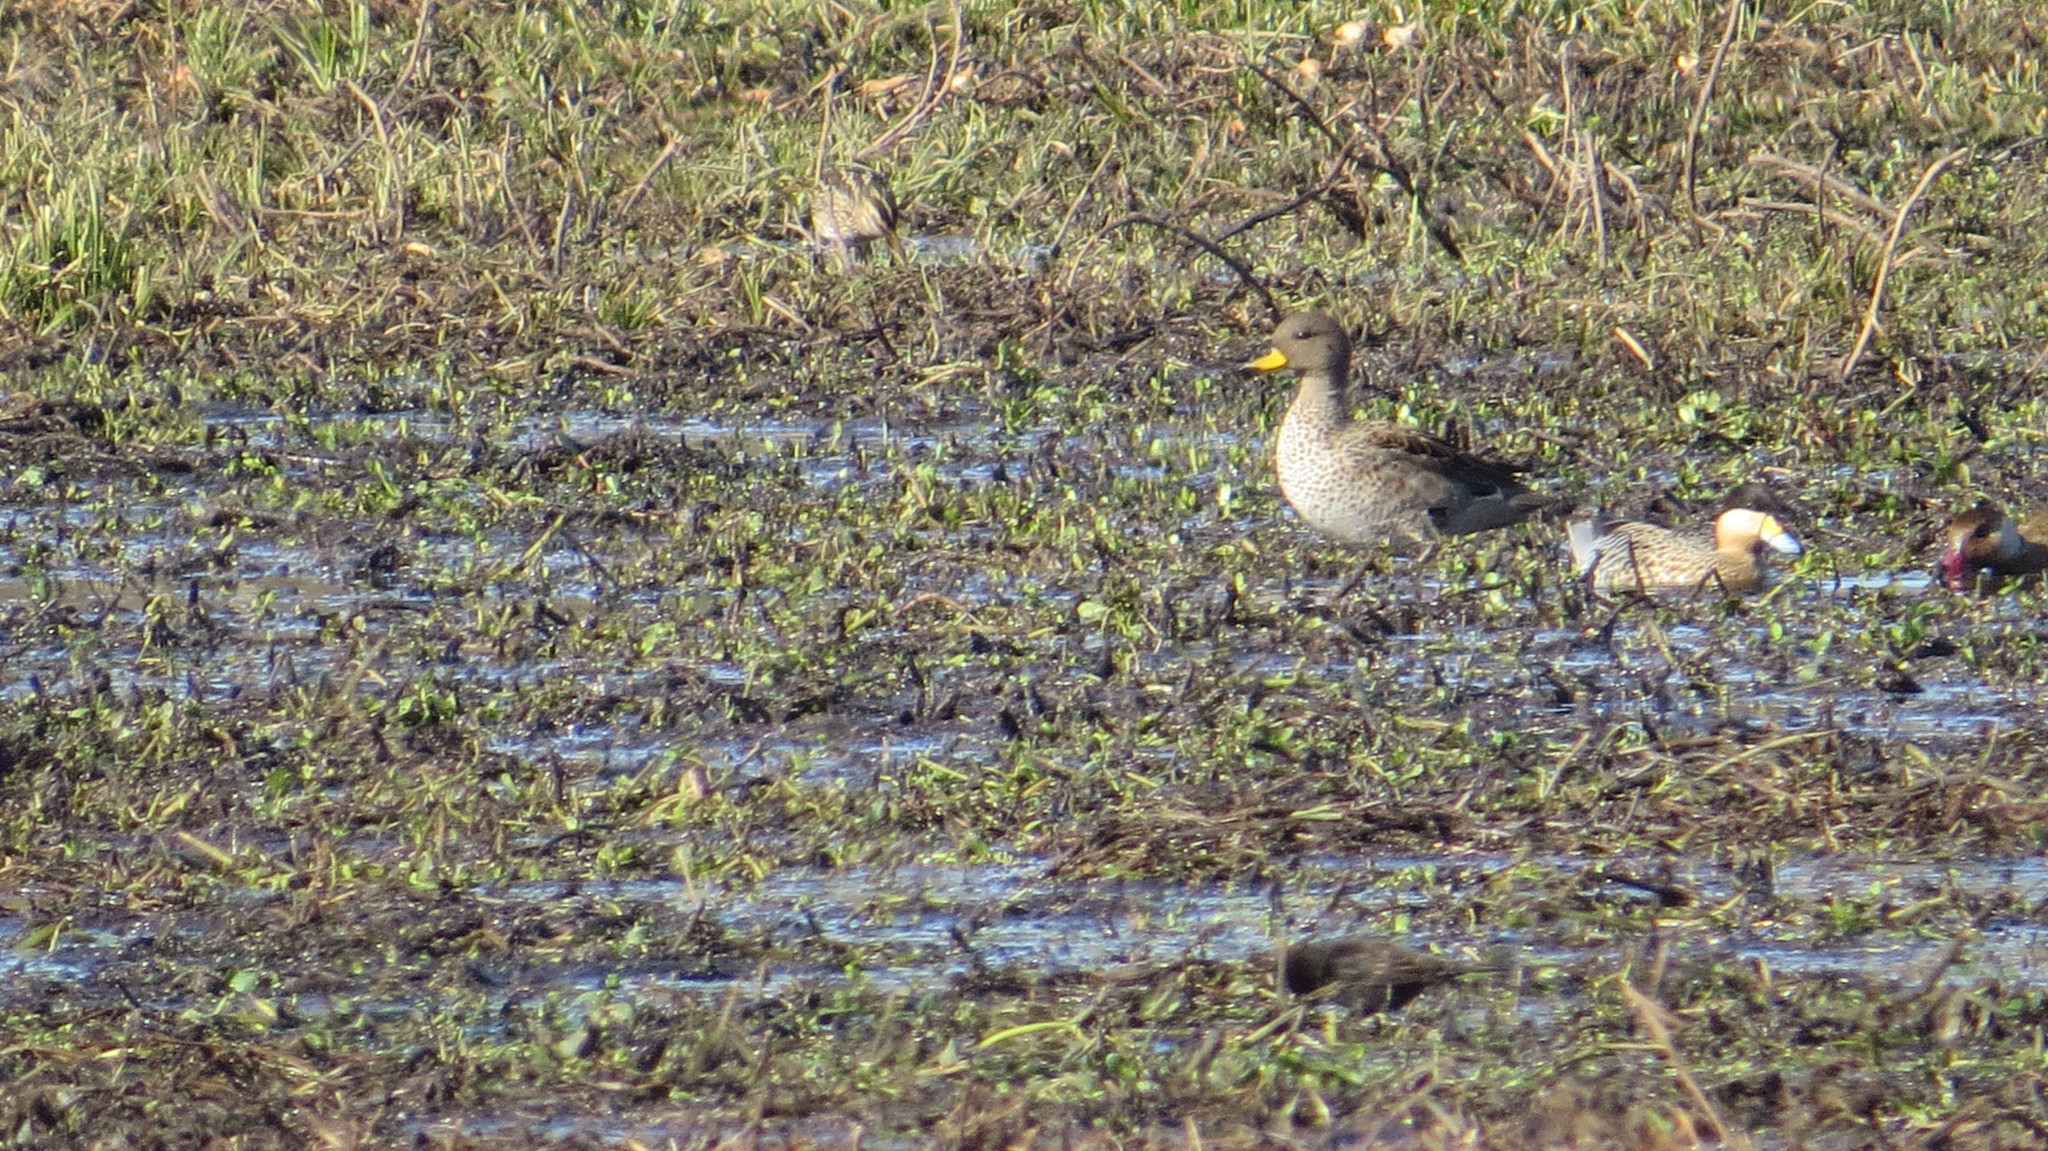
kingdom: Animalia
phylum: Chordata
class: Aves
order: Anseriformes
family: Anatidae
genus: Spatula
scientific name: Spatula versicolor
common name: Silver teal
